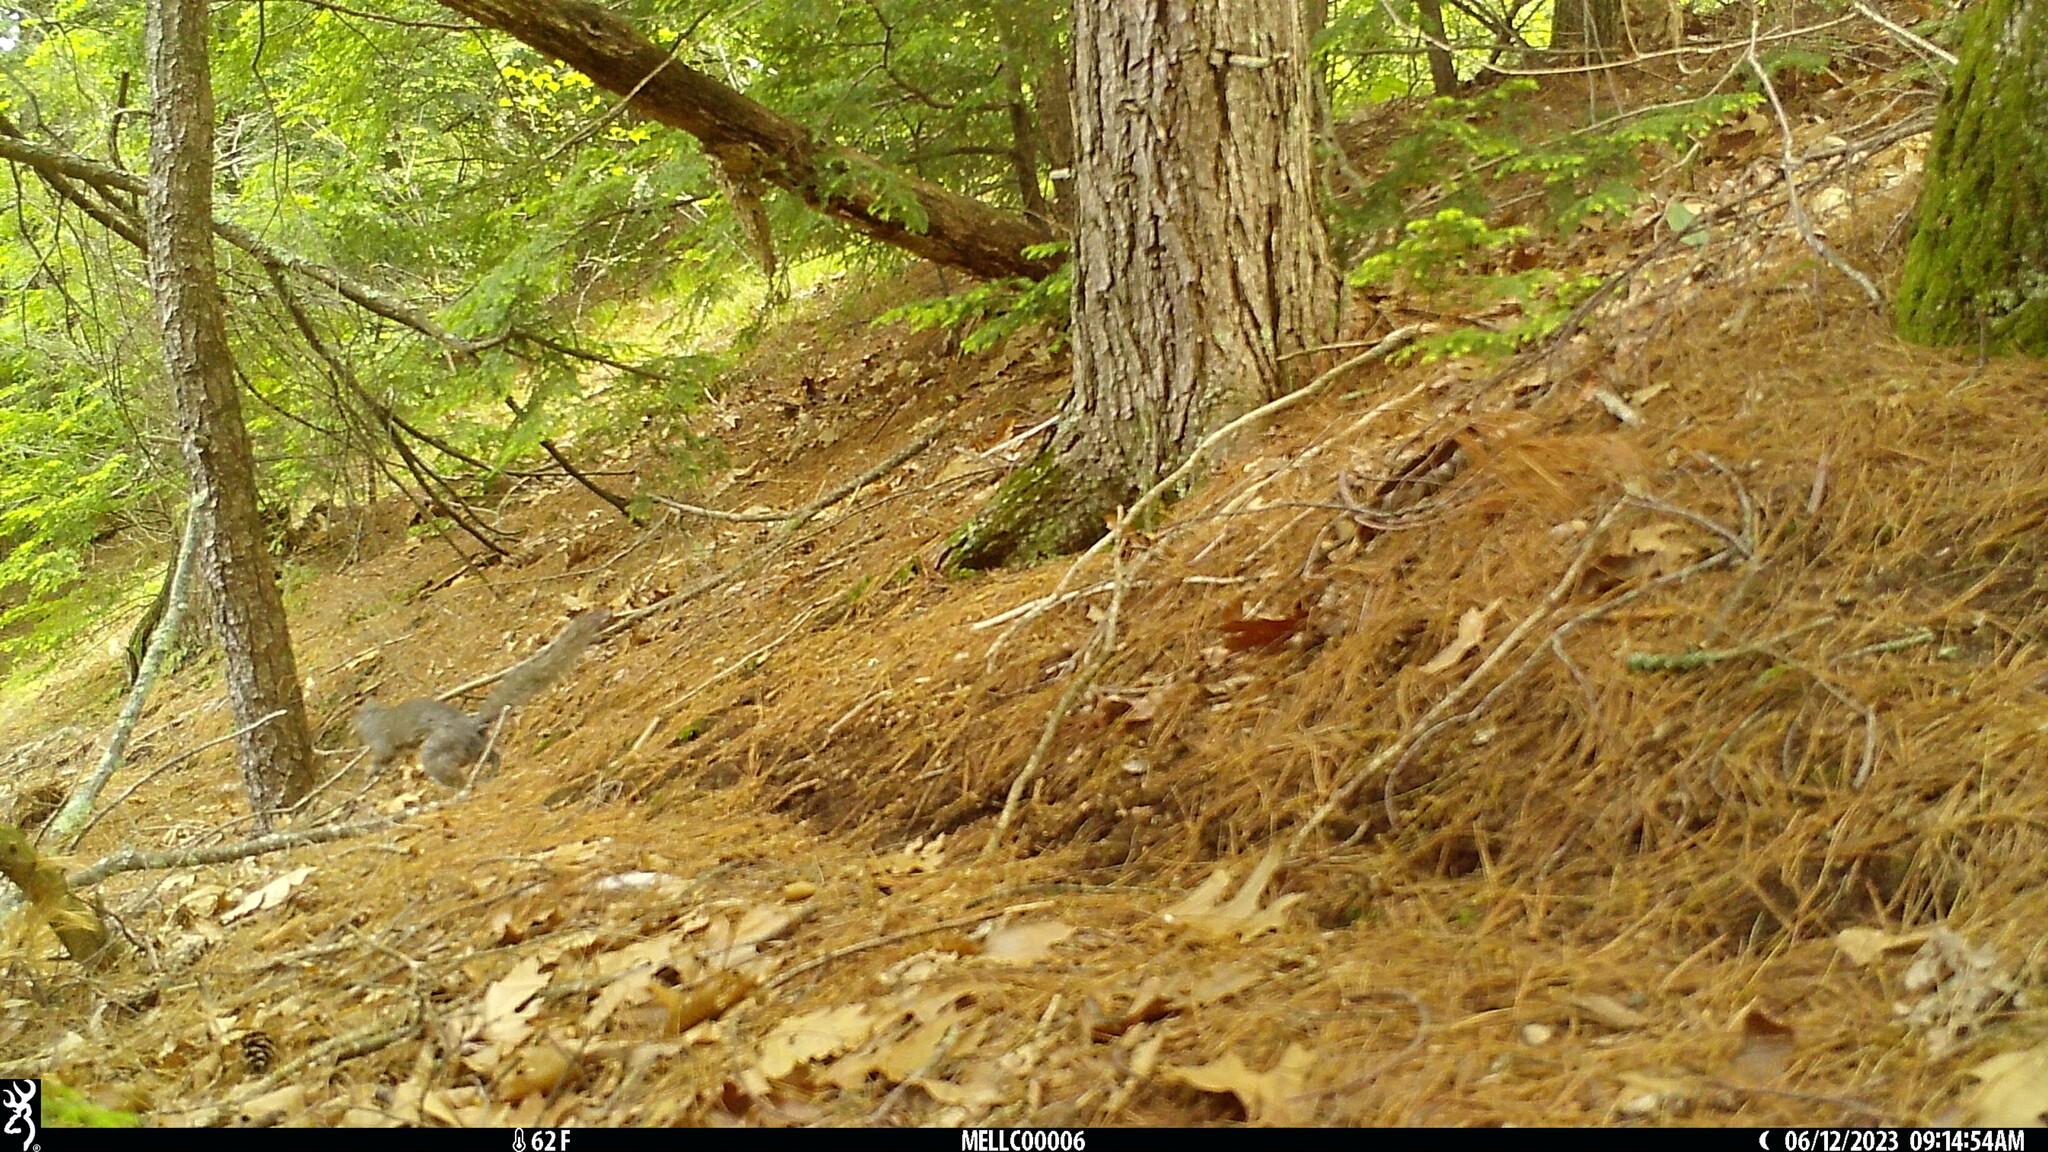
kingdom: Animalia
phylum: Chordata
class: Mammalia
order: Rodentia
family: Sciuridae
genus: Sciurus
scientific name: Sciurus carolinensis
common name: Eastern gray squirrel
